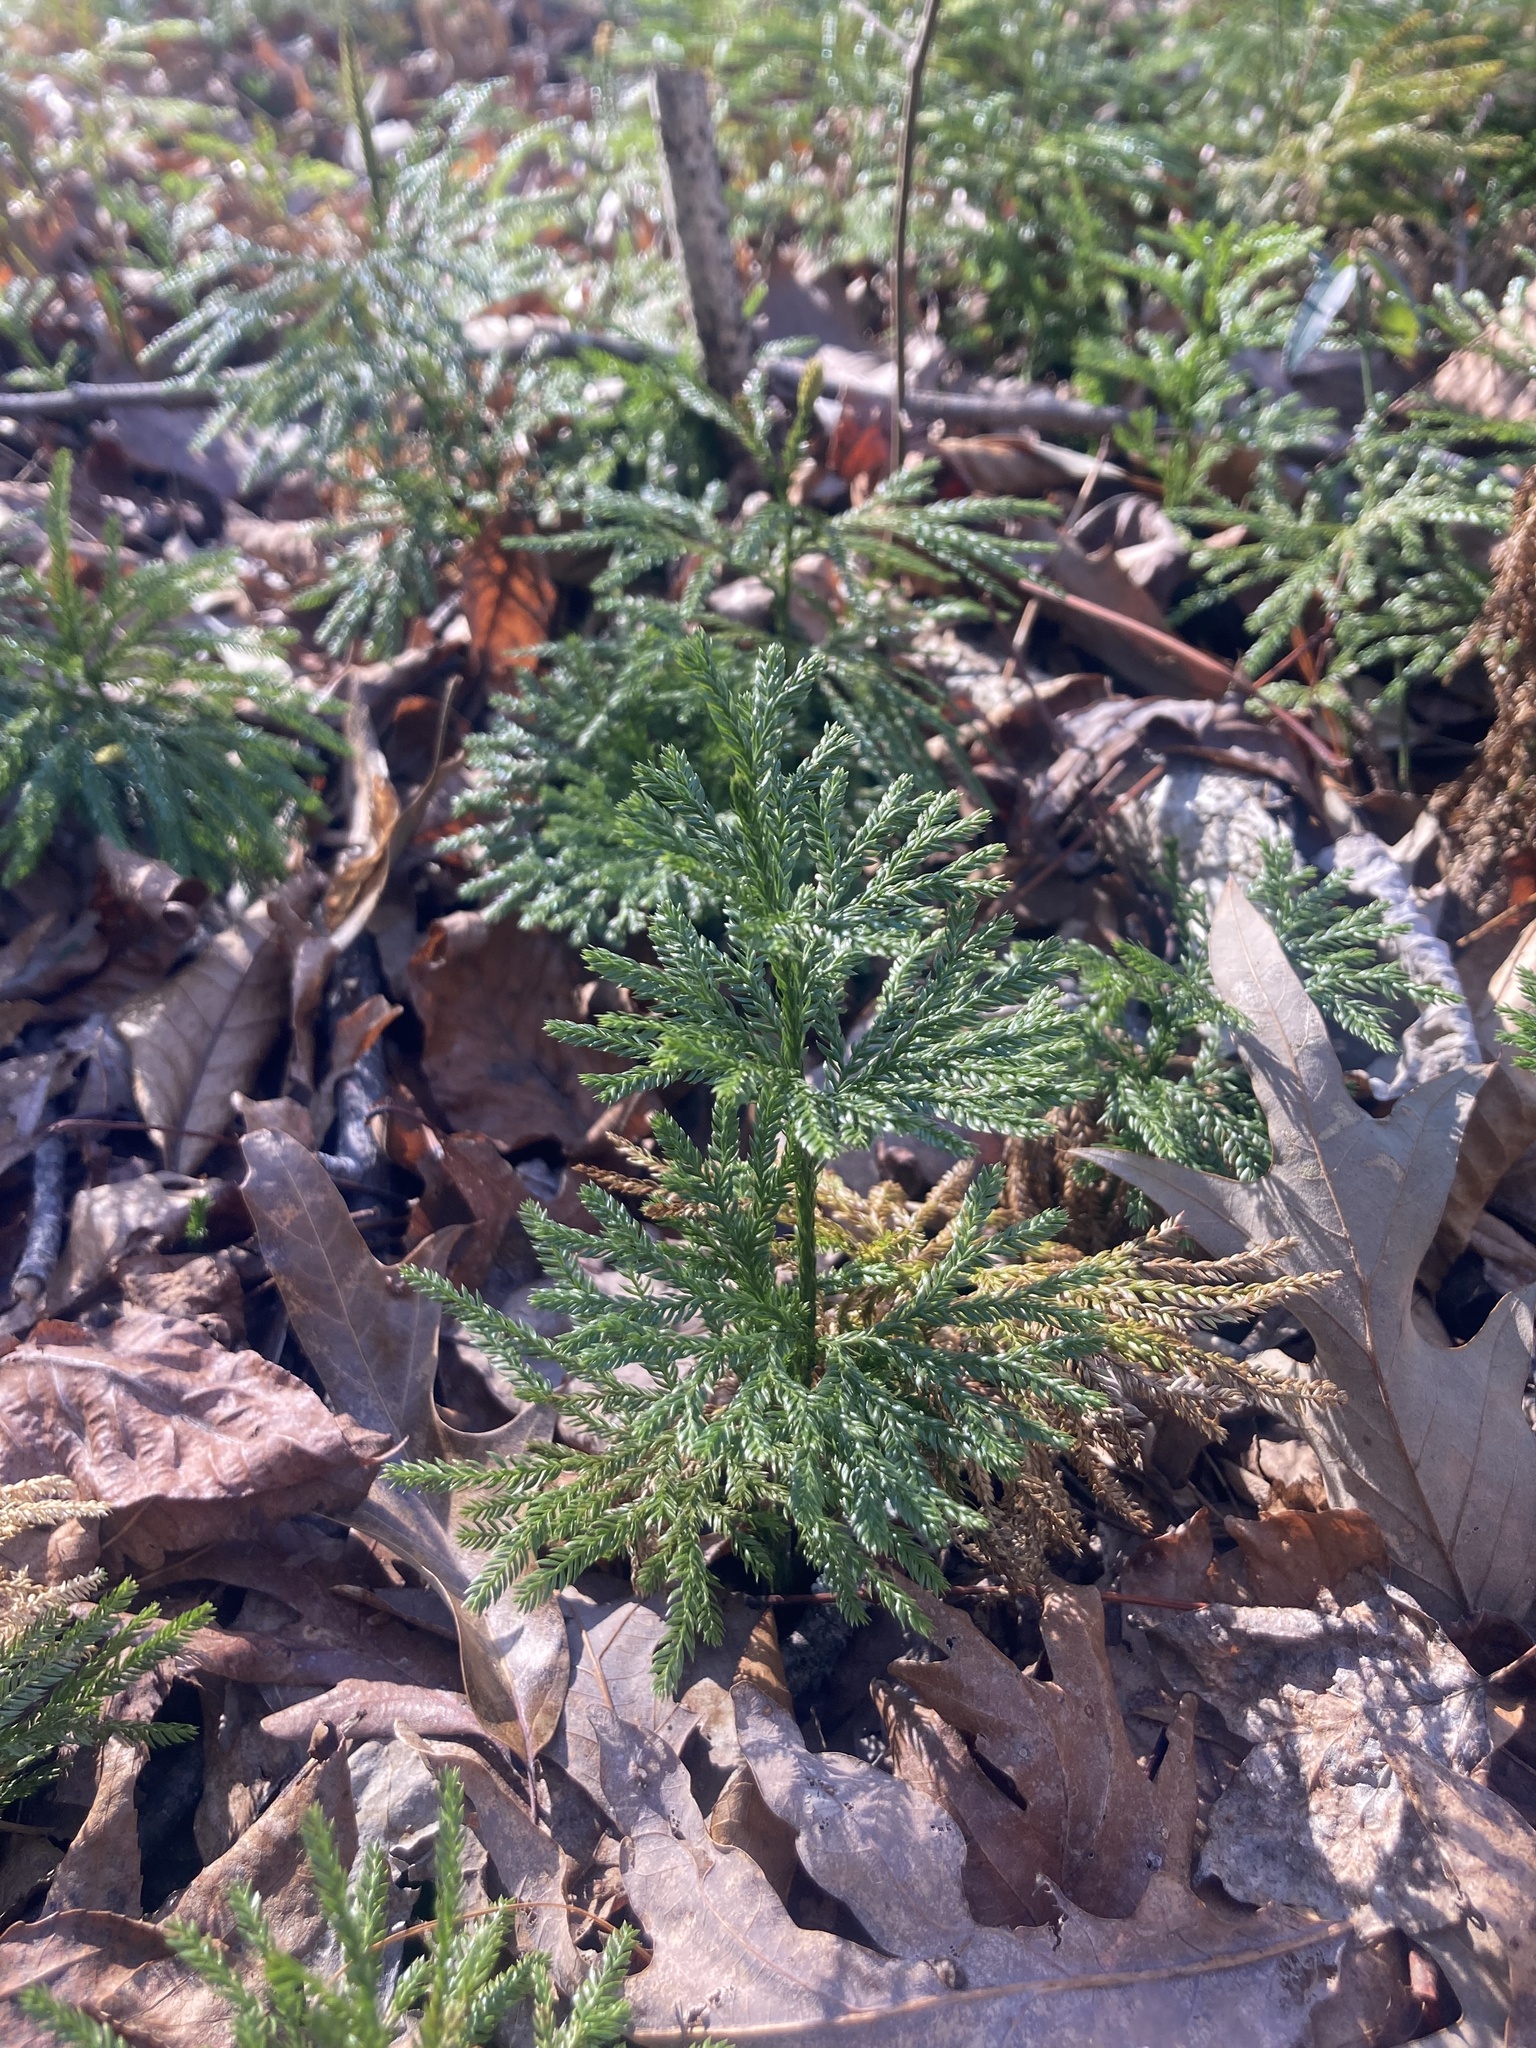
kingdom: Plantae
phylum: Tracheophyta
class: Lycopodiopsida
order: Lycopodiales
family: Lycopodiaceae
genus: Dendrolycopodium
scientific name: Dendrolycopodium obscurum
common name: Common ground-pine
